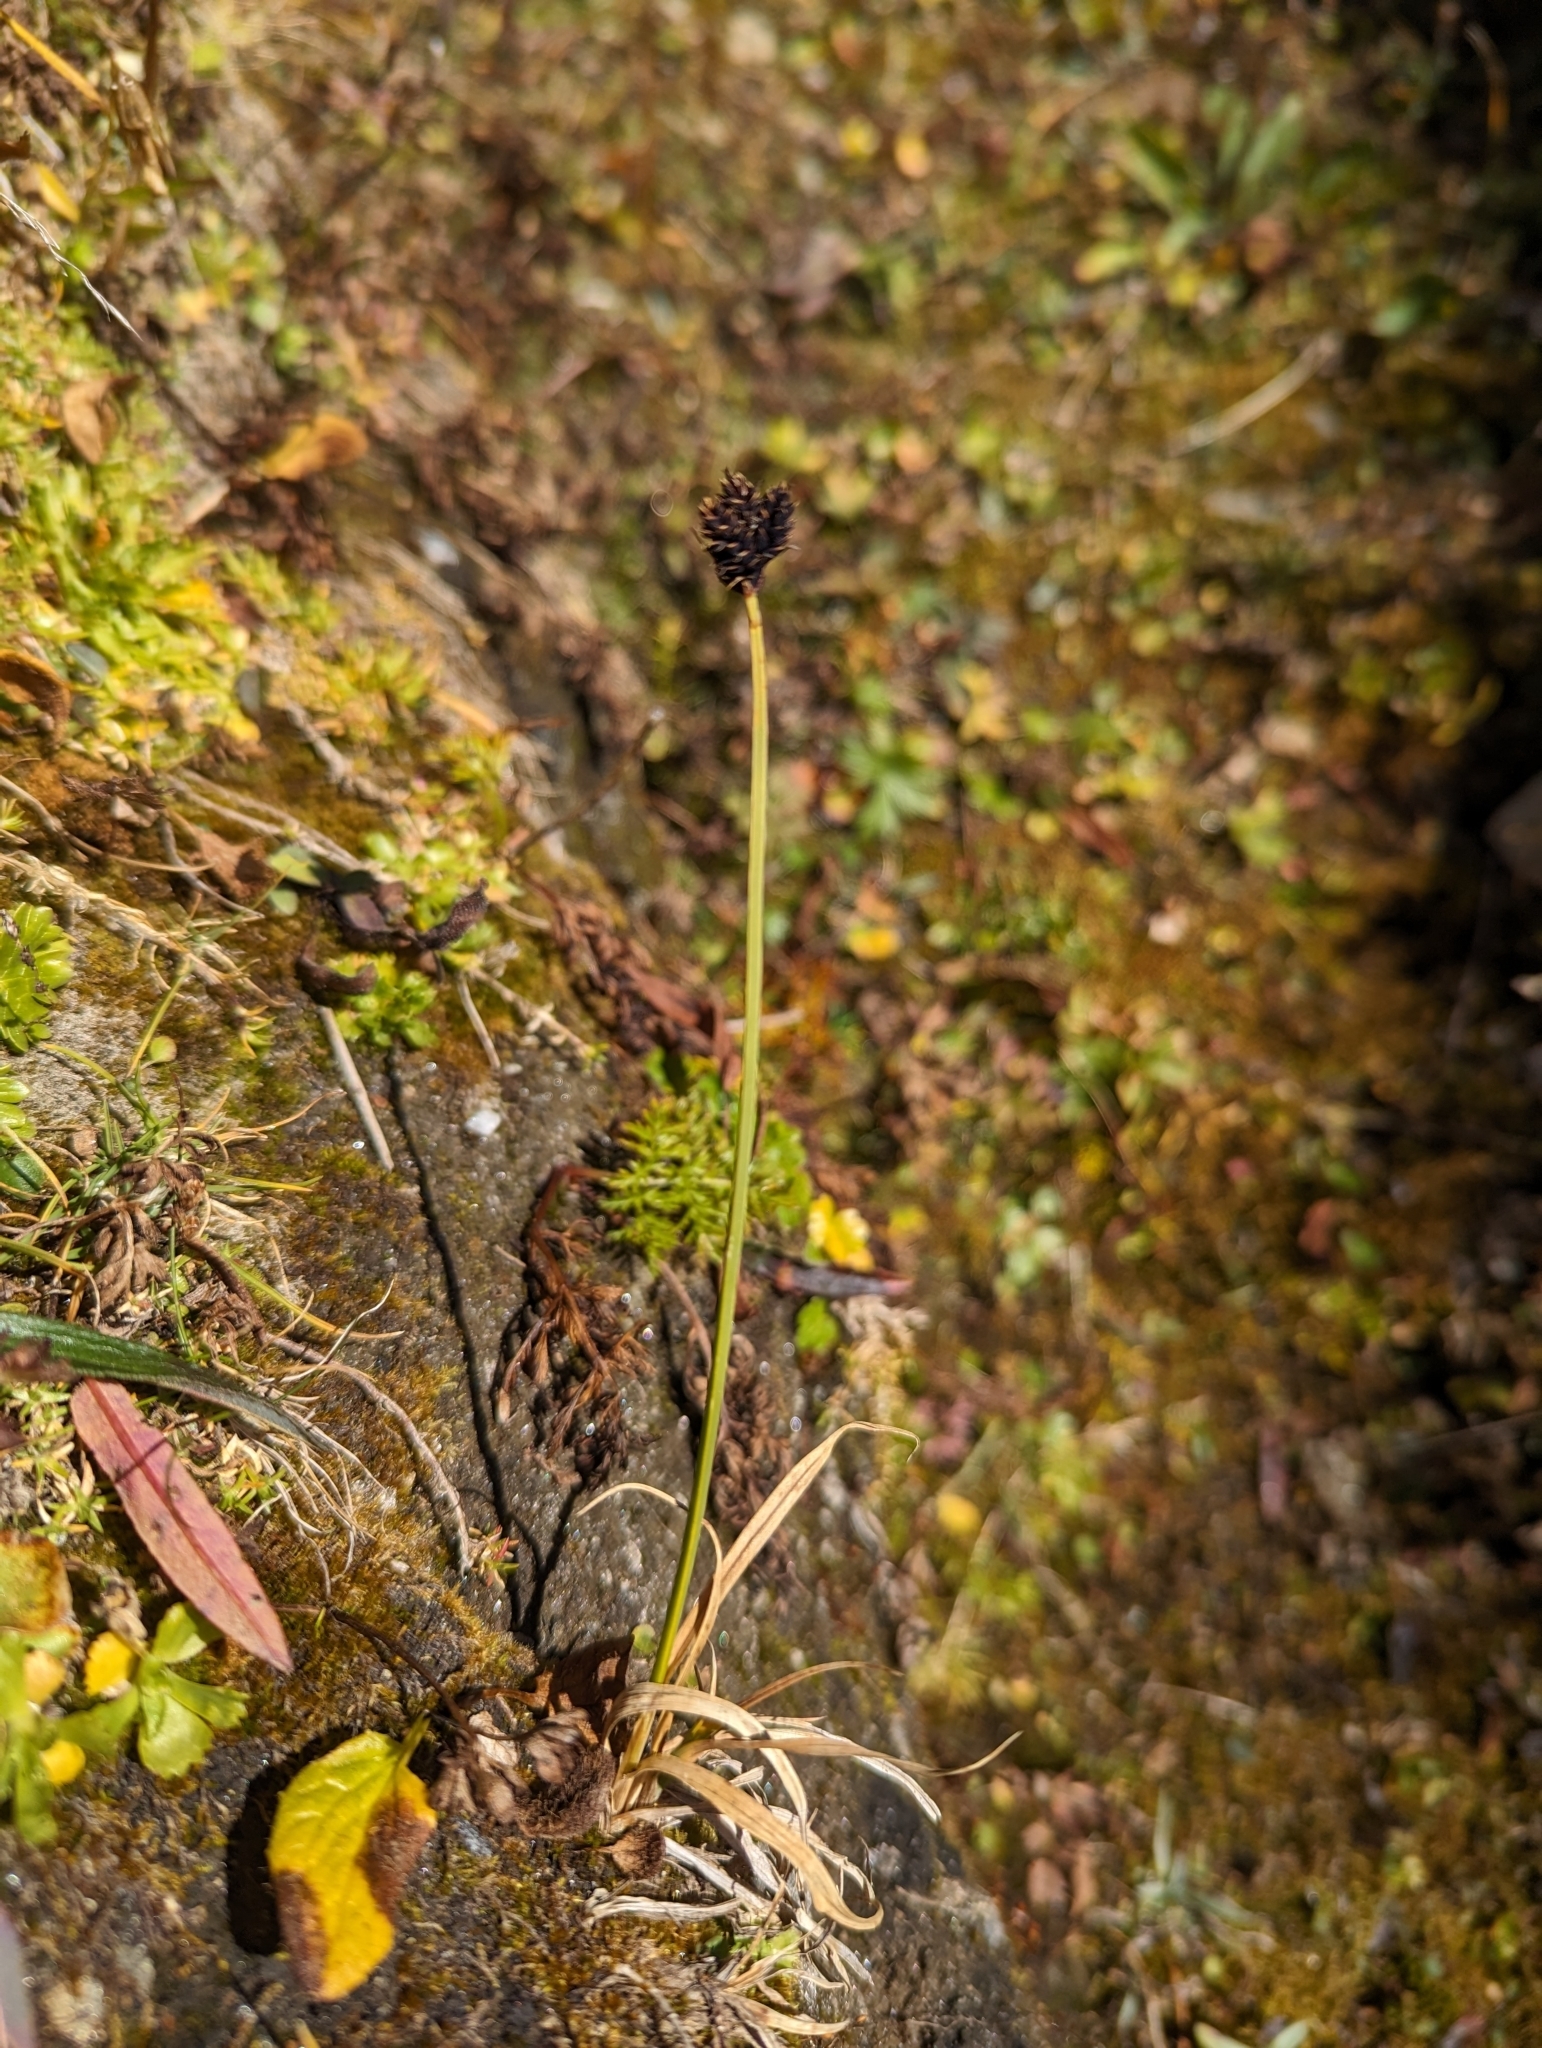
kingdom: Plantae
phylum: Tracheophyta
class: Liliopsida
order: Poales
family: Cyperaceae
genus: Carex
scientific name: Carex atrata
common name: Black alpine sedge
